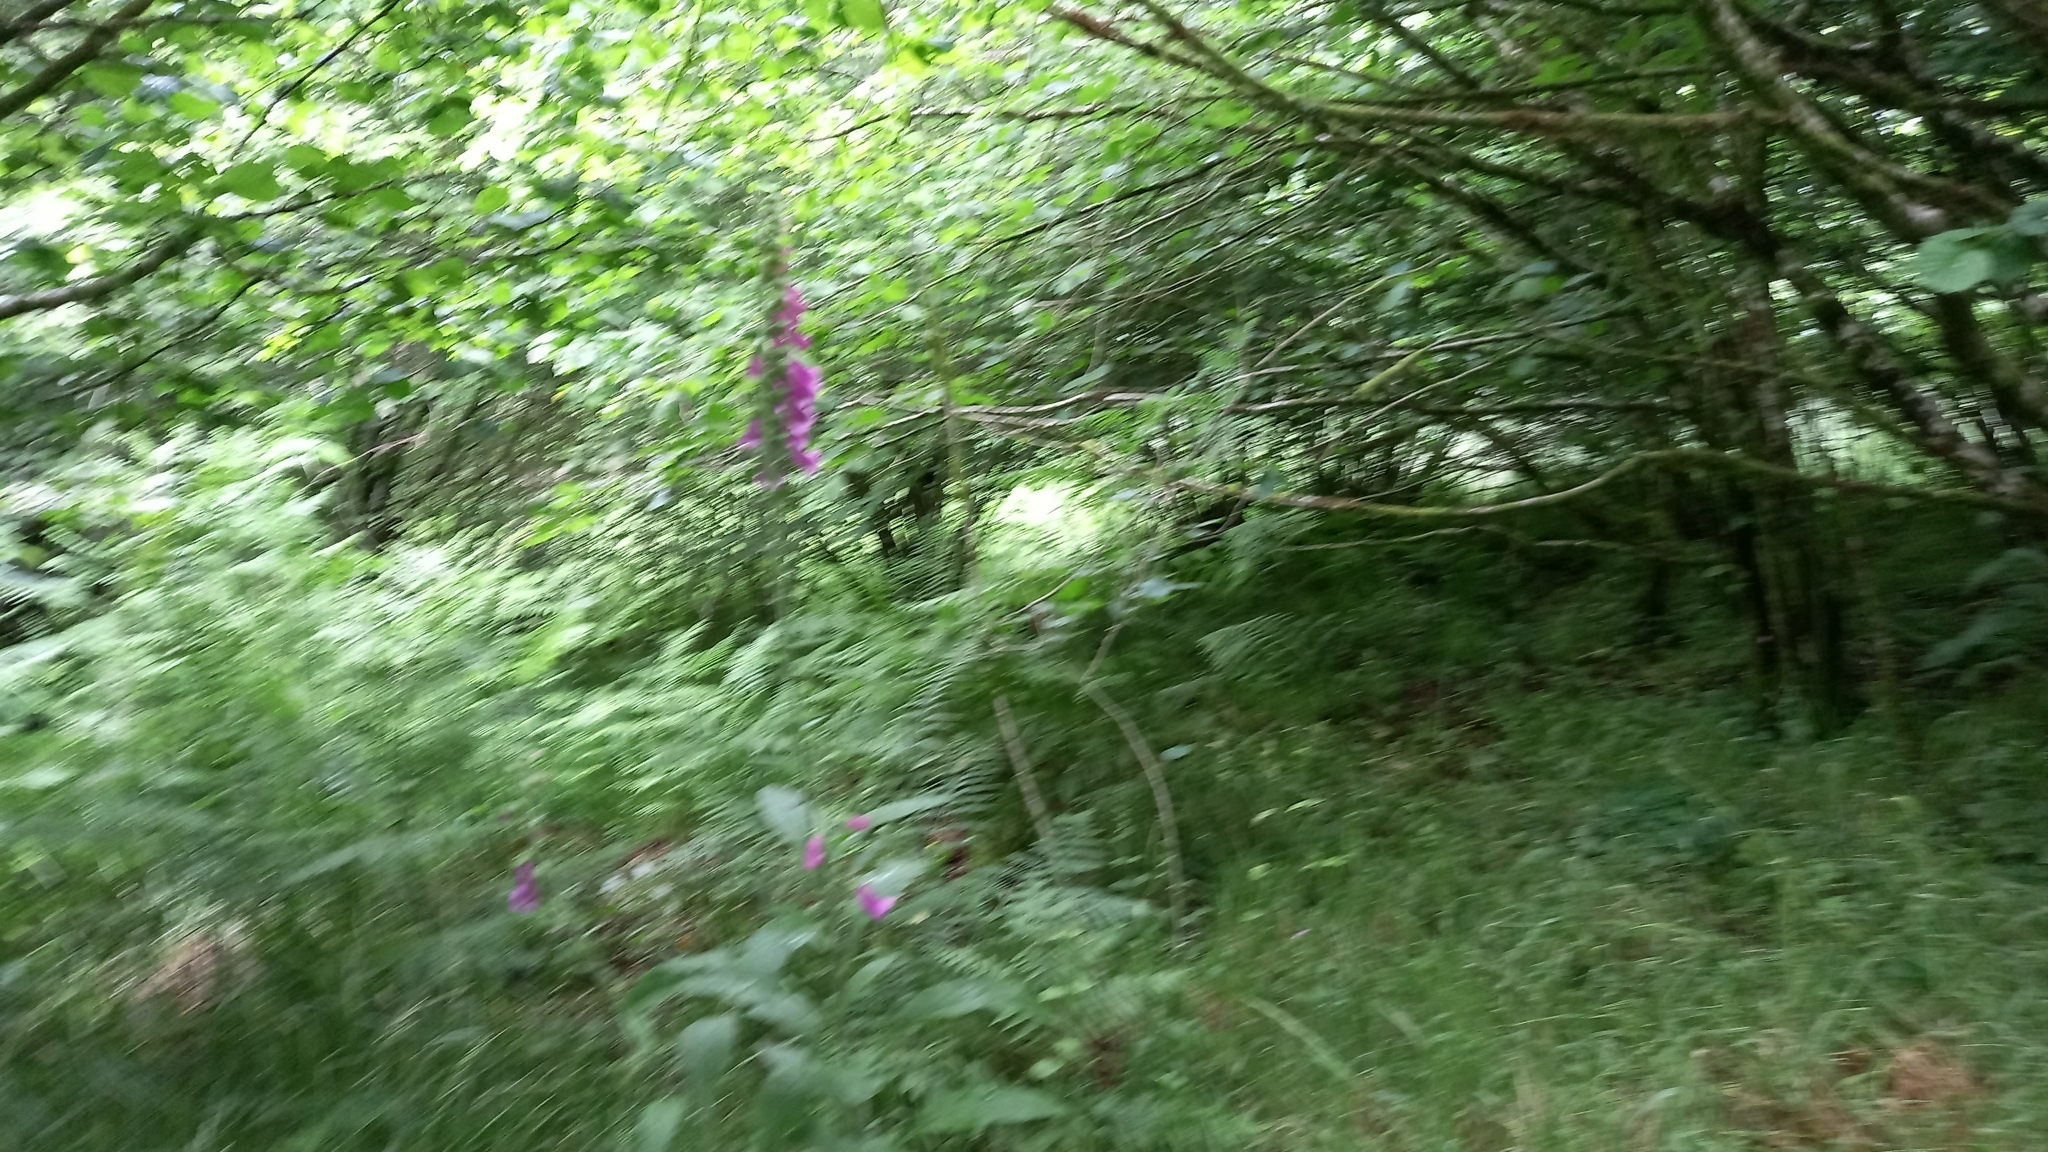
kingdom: Plantae
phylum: Tracheophyta
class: Magnoliopsida
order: Lamiales
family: Plantaginaceae
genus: Digitalis
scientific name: Digitalis purpurea
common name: Foxglove
